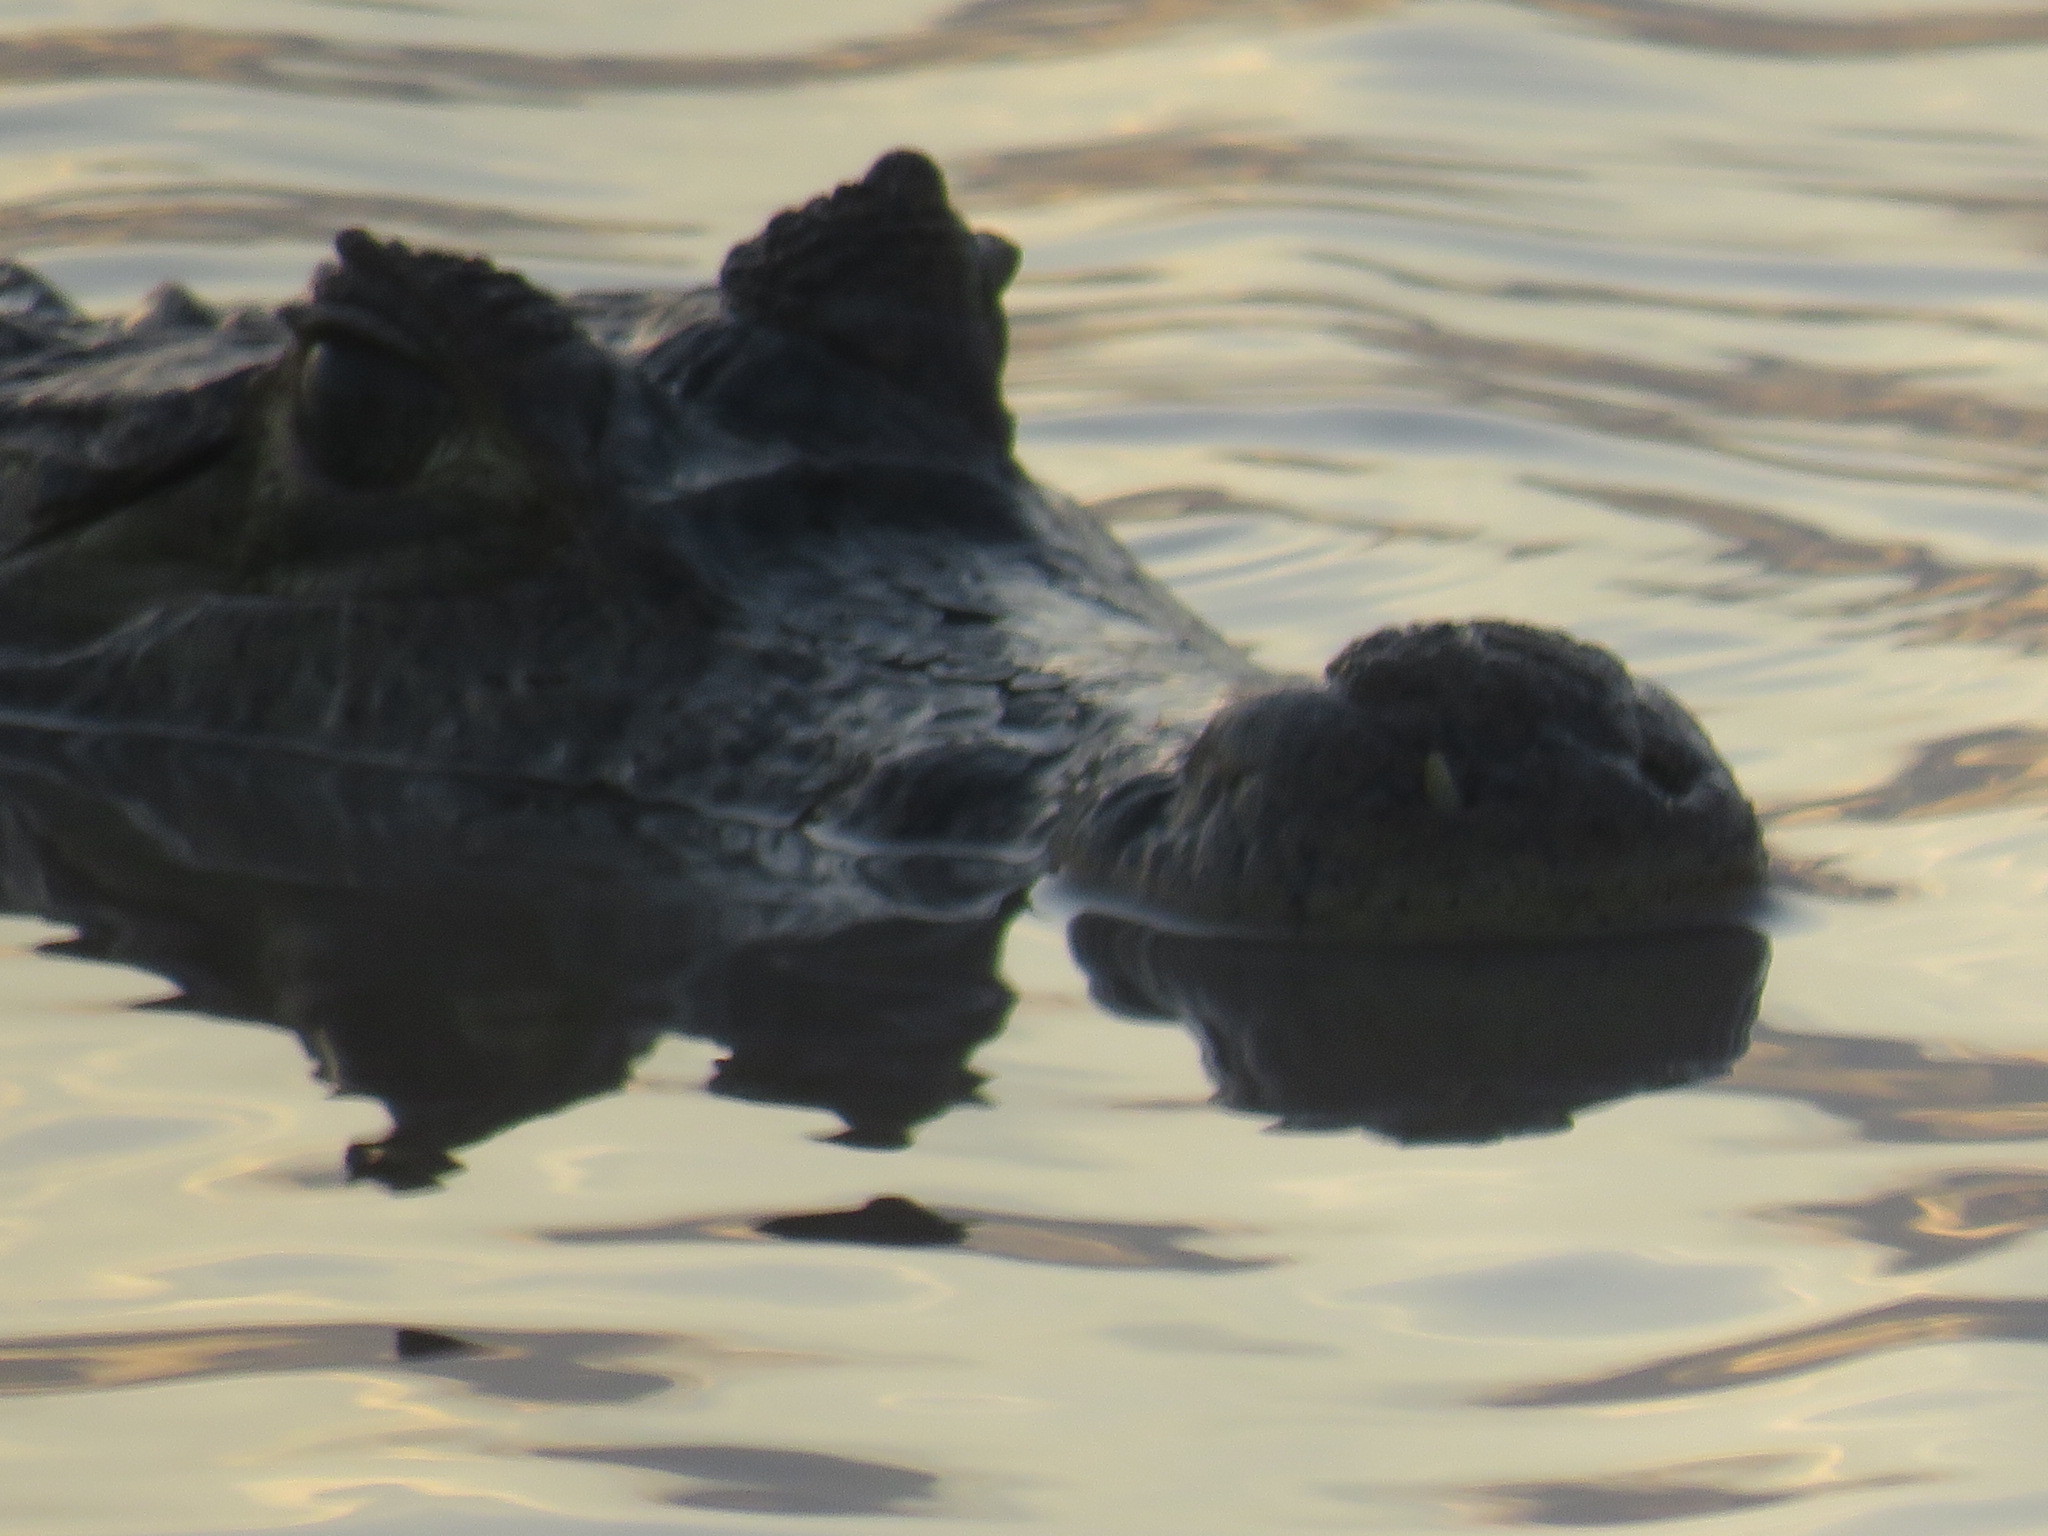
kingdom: Animalia
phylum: Chordata
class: Crocodylia
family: Alligatoridae
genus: Caiman
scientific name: Caiman crocodilus
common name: Common caiman
